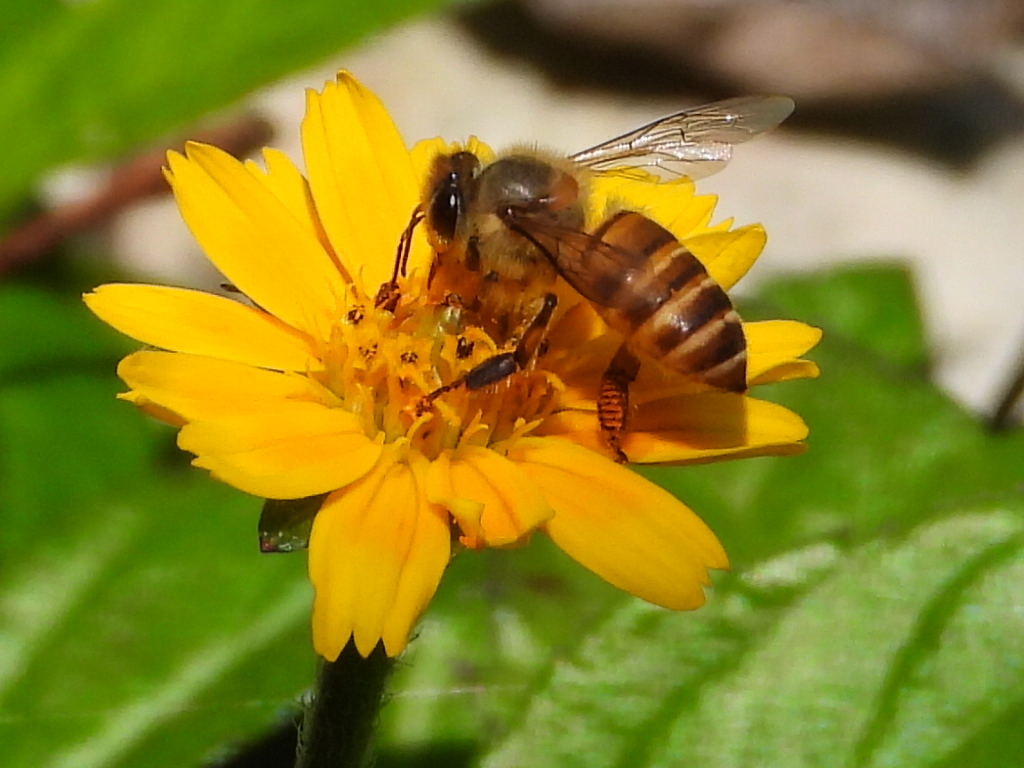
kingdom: Animalia
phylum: Arthropoda
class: Insecta
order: Hymenoptera
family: Apidae
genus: Apis
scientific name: Apis cerana
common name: Honey bee
